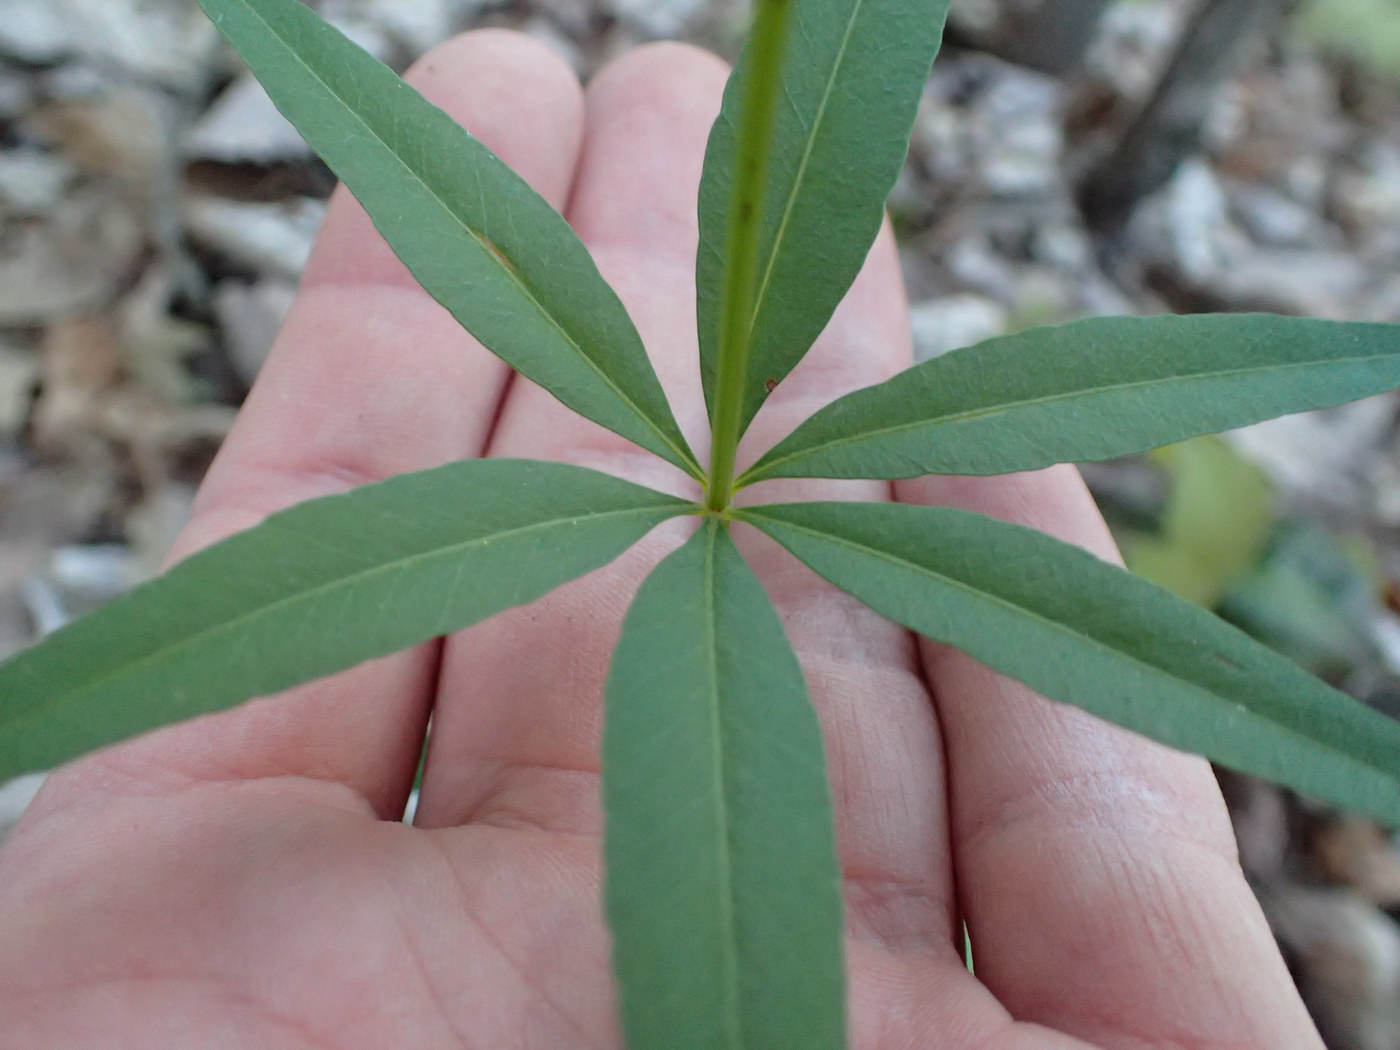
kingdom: Plantae
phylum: Tracheophyta
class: Magnoliopsida
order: Asterales
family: Asteraceae
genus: Coreopsis
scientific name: Coreopsis major
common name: Forest tickseed
